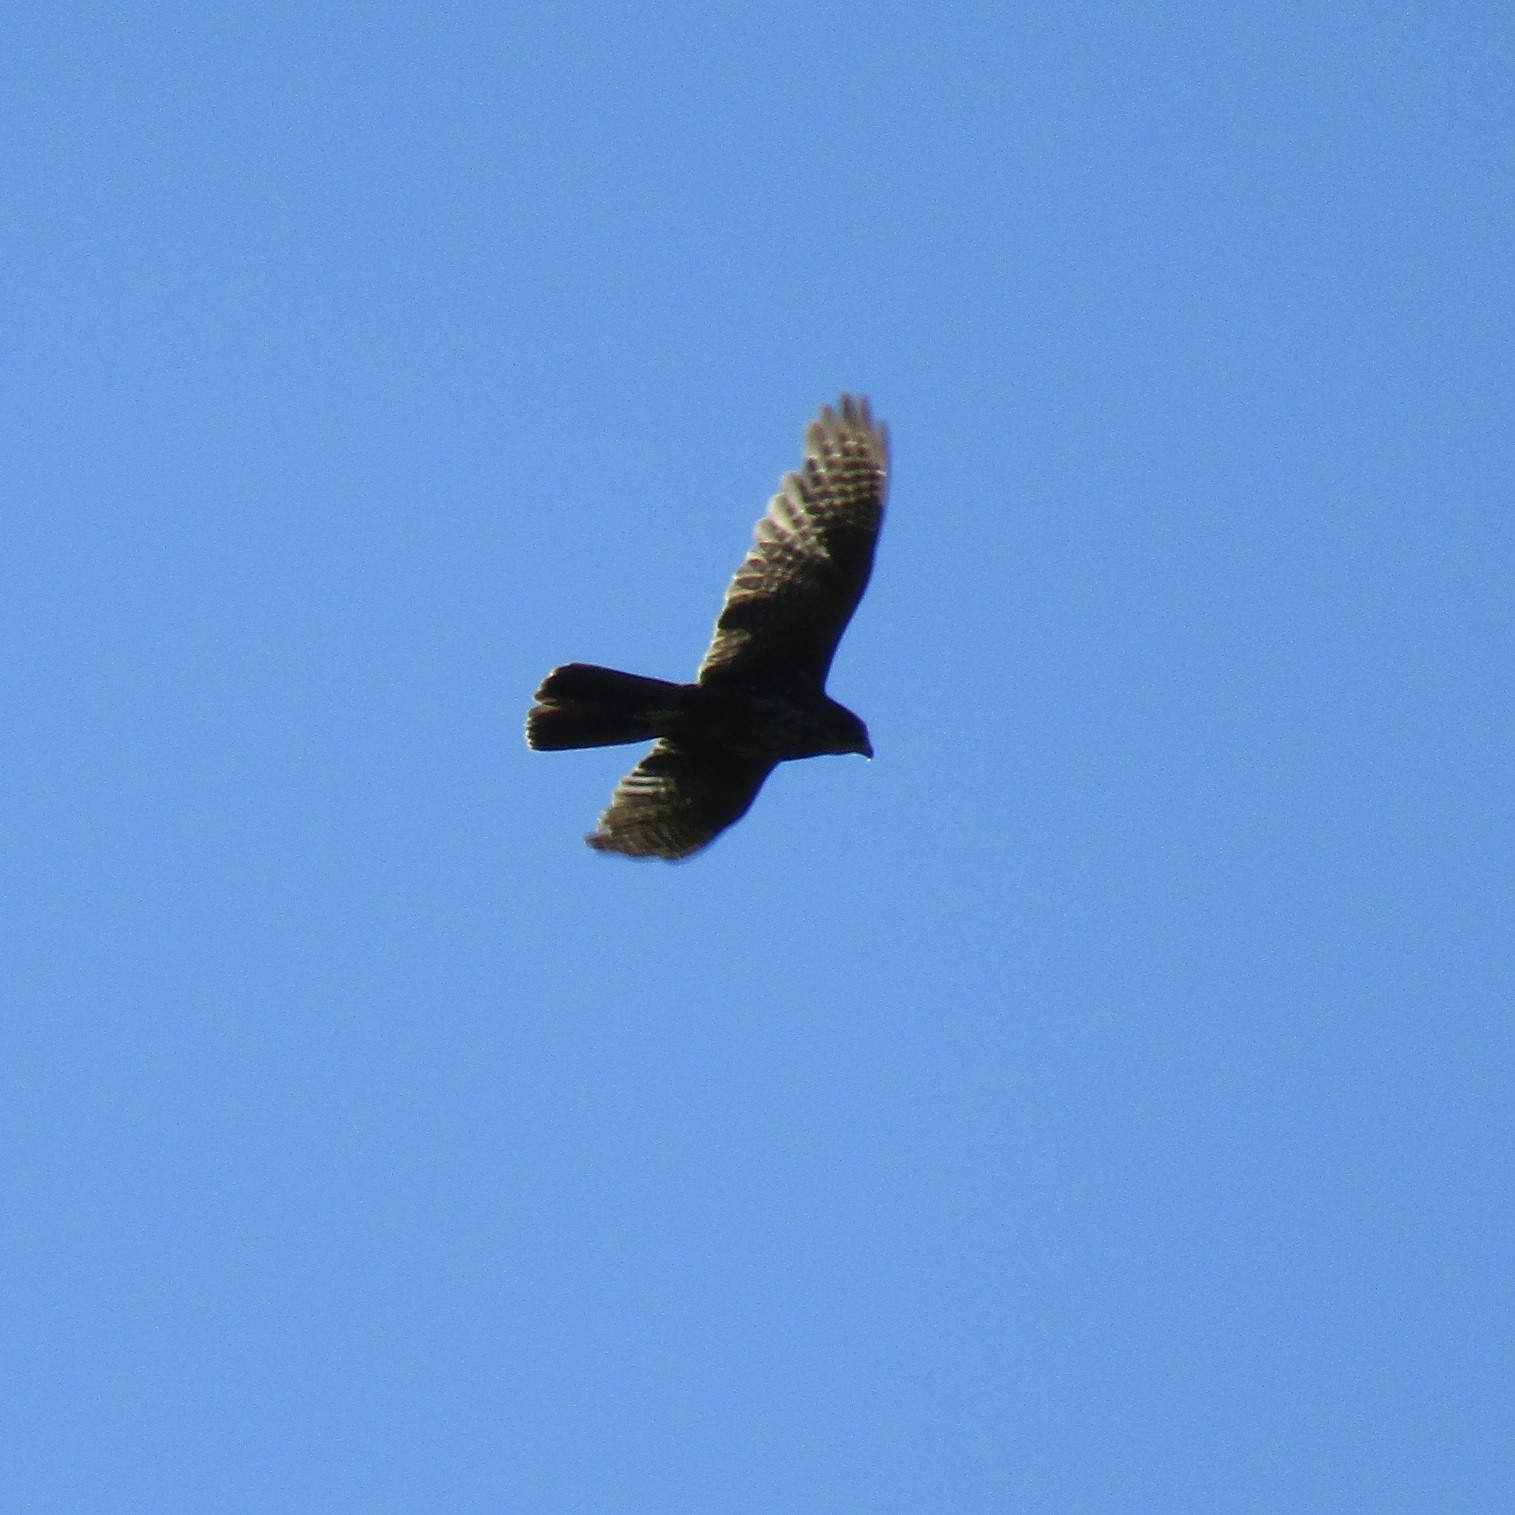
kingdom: Animalia
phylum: Chordata
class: Aves
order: Falconiformes
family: Falconidae
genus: Falco
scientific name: Falco novaeseelandiae
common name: New zealand falcon
